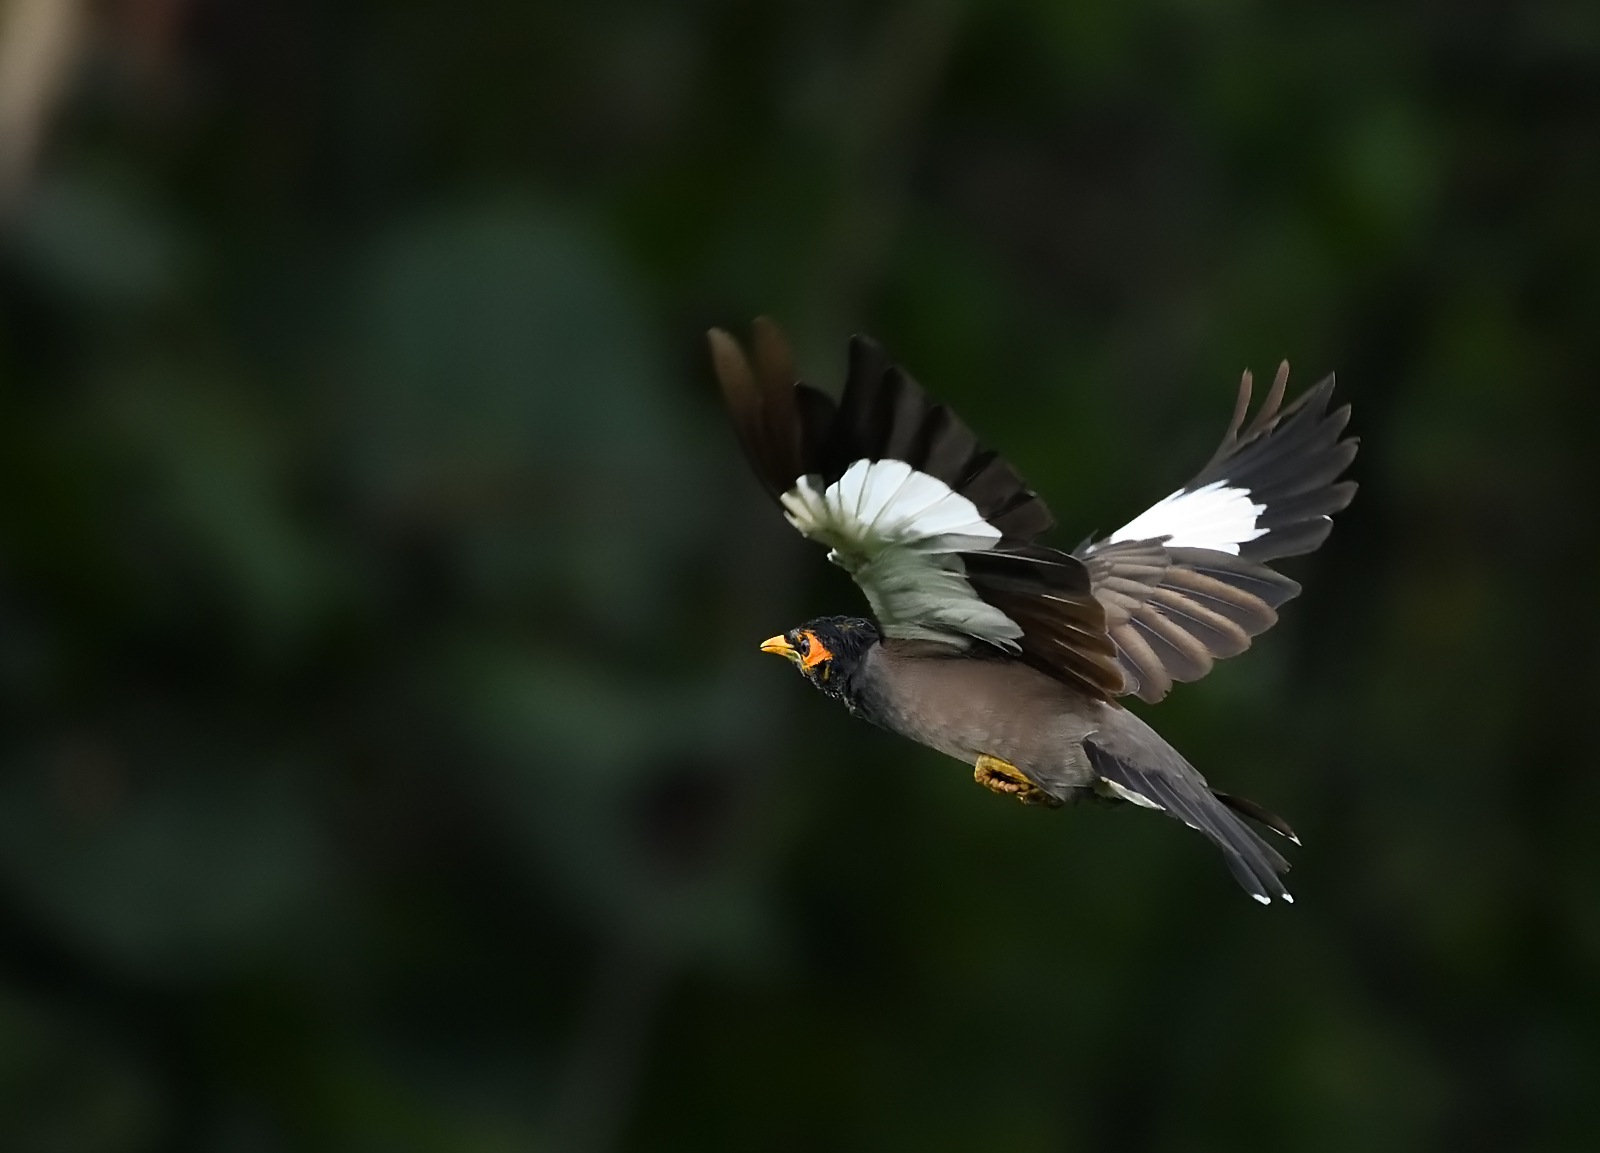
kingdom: Animalia
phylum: Chordata
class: Aves
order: Passeriformes
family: Sturnidae
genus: Acridotheres
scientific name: Acridotheres tristis
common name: Common myna
